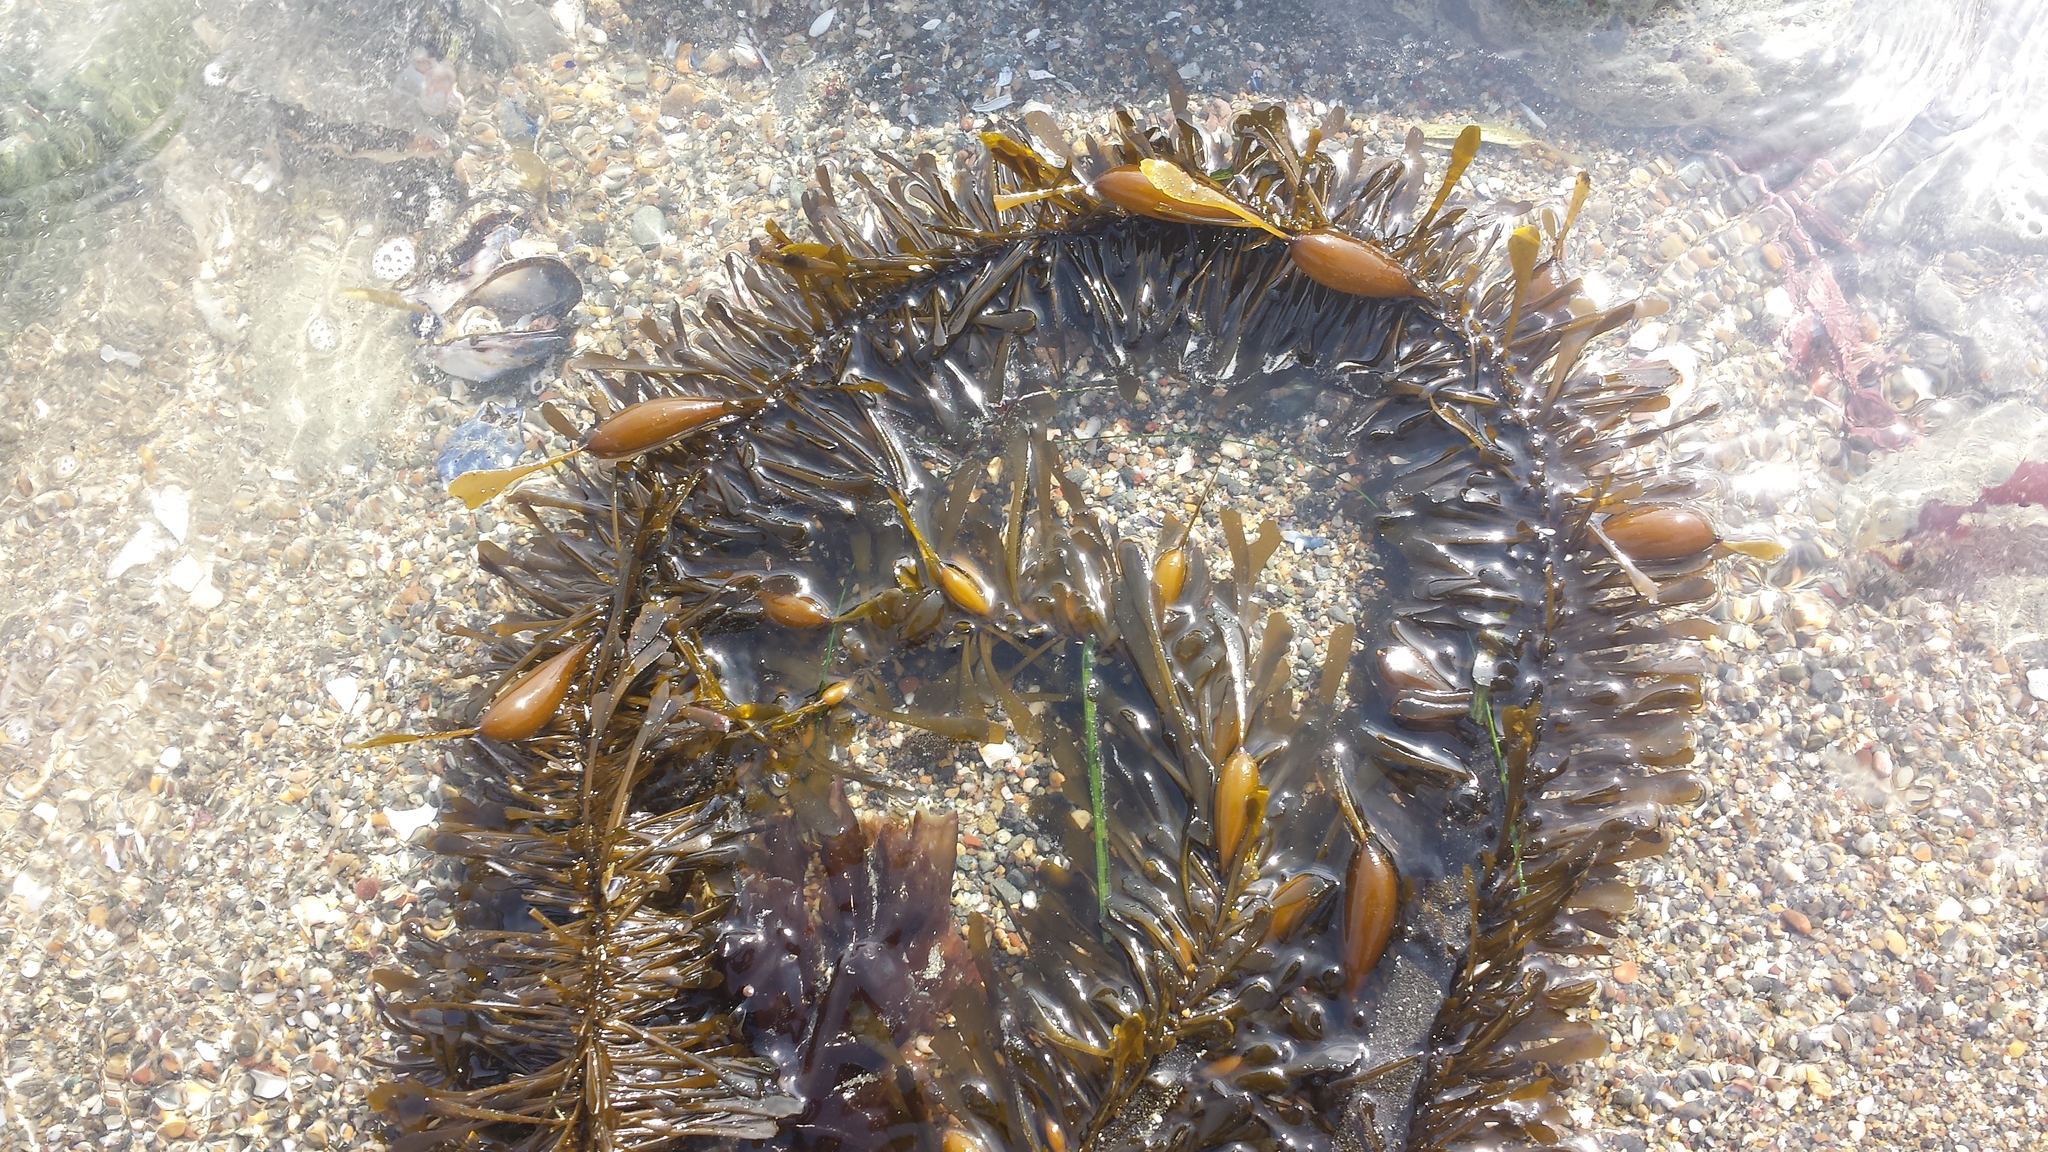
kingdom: Chromista
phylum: Ochrophyta
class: Phaeophyceae
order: Laminariales
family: Lessoniaceae
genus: Egregia
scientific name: Egregia menziesii
